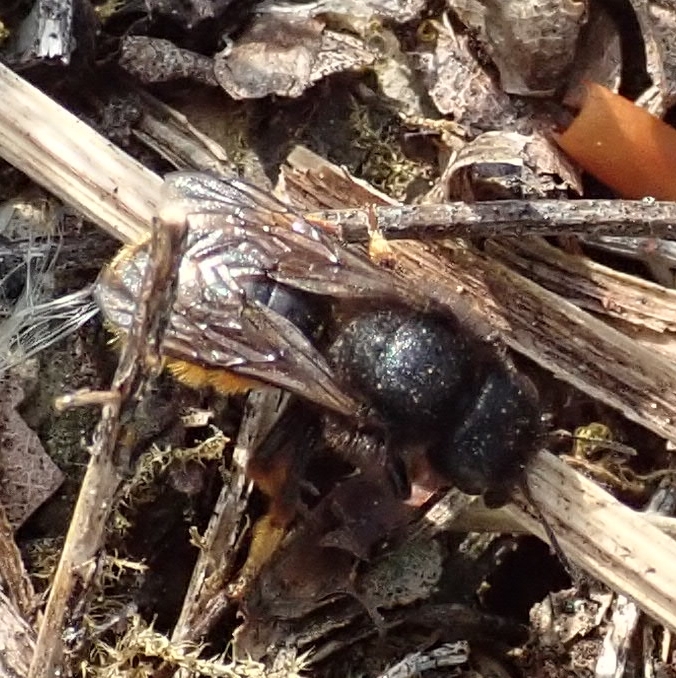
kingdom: Animalia
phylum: Arthropoda
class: Insecta
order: Hymenoptera
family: Megachilidae
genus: Osmia
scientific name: Osmia bicolor
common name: Red-tailed mason bee
